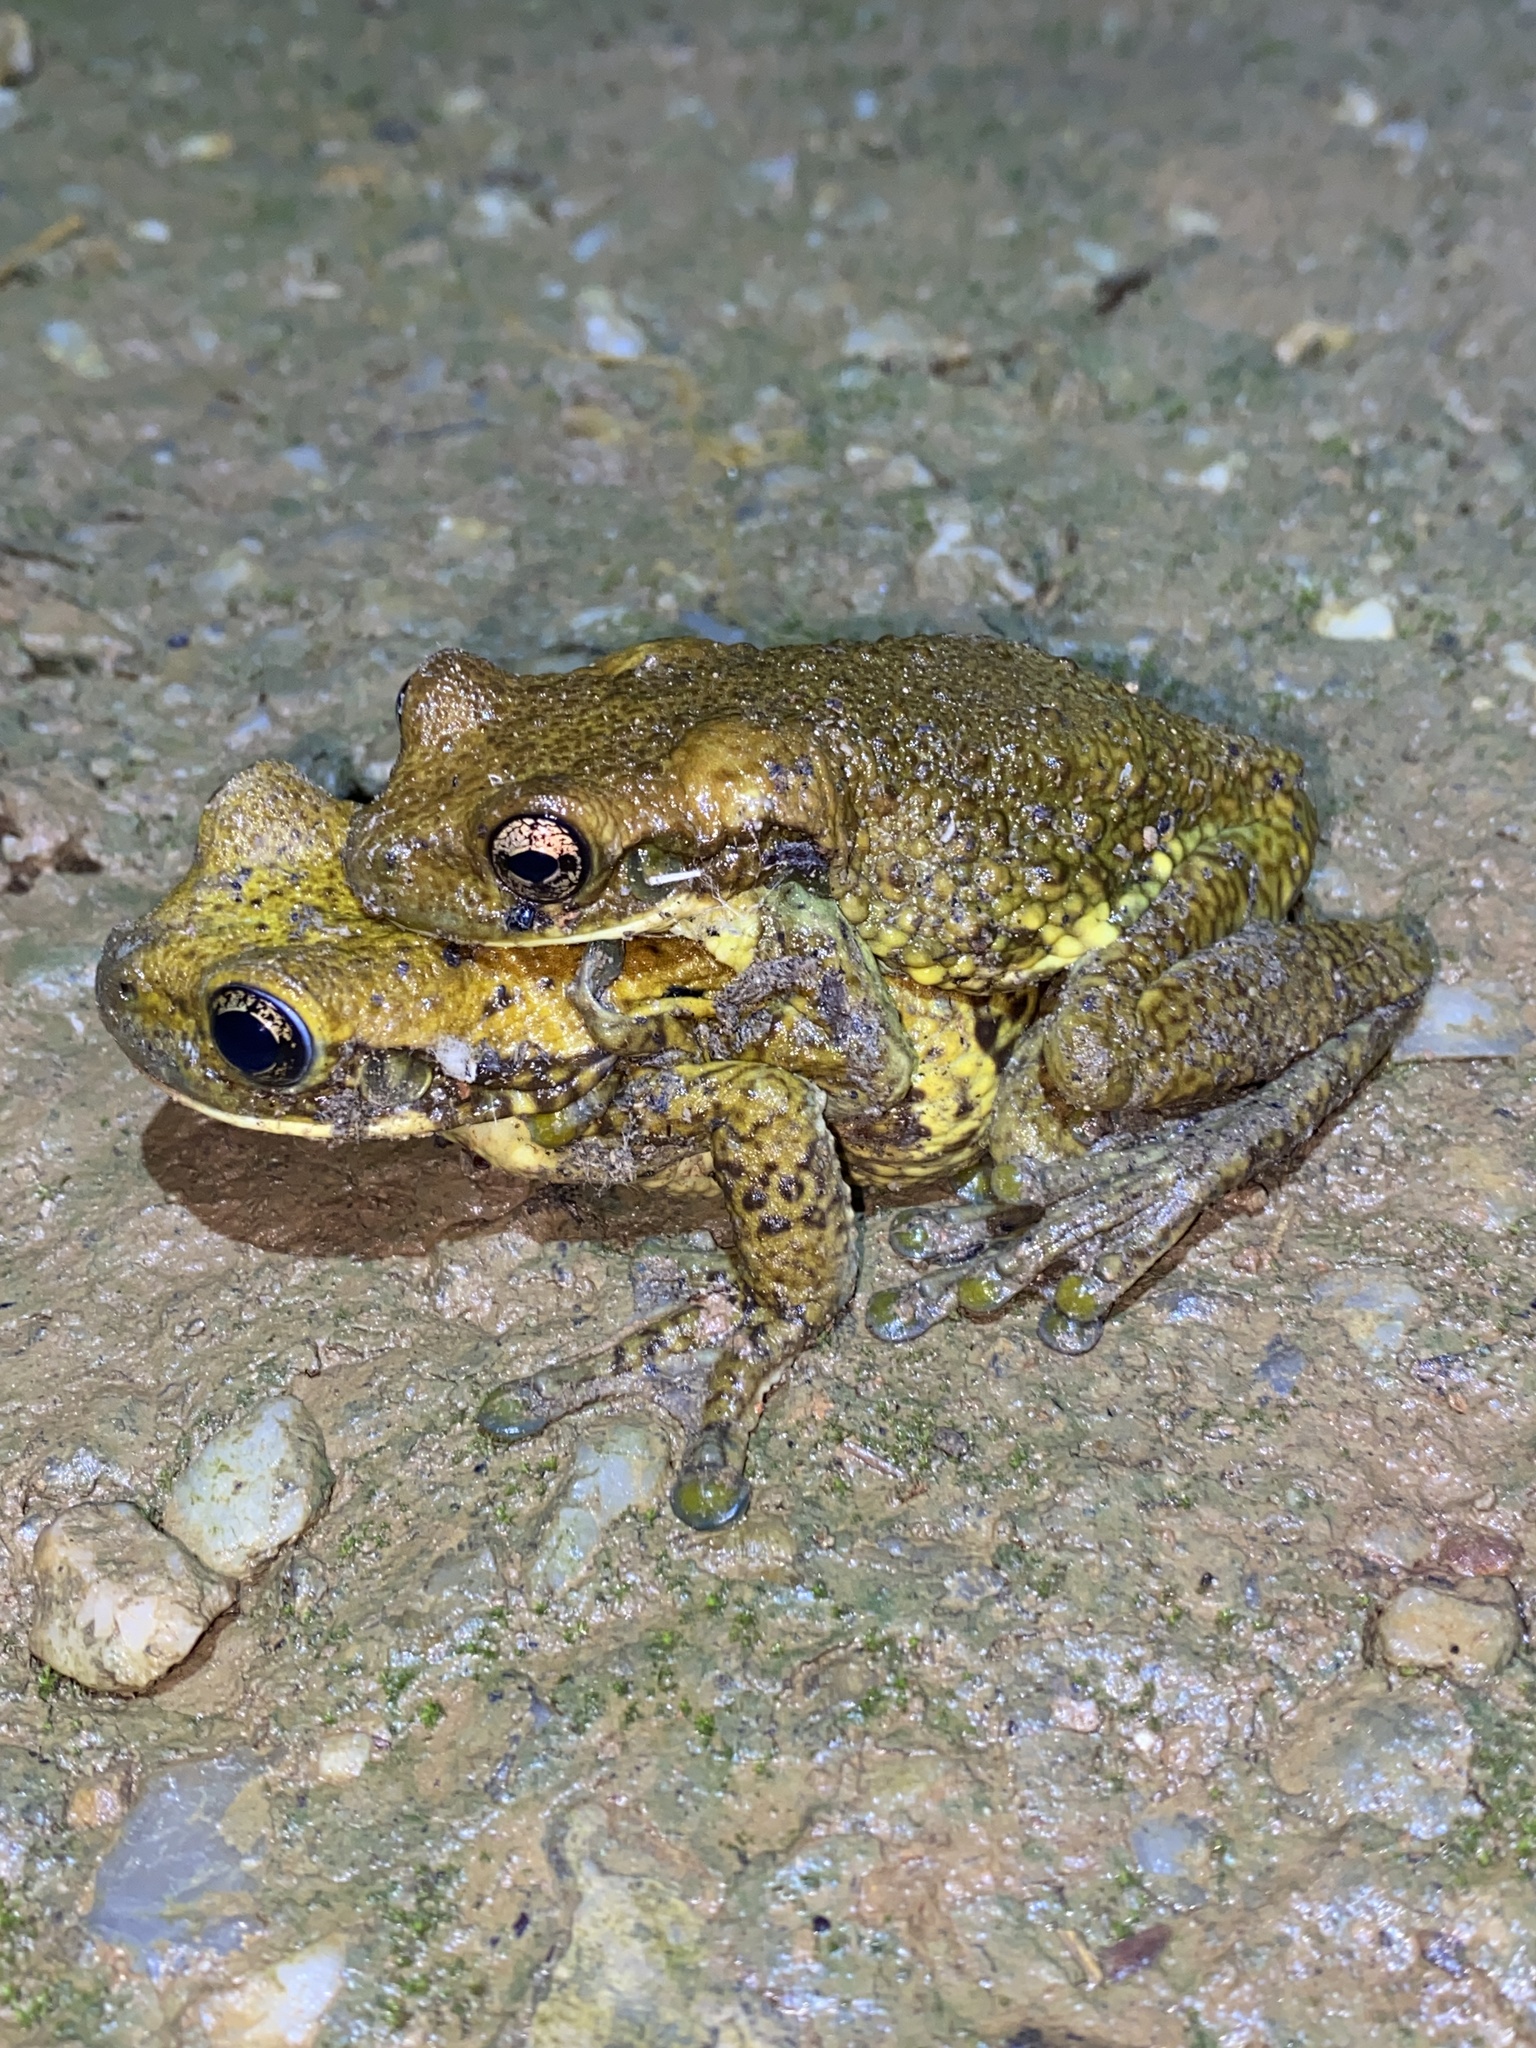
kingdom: Animalia
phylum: Chordata
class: Amphibia
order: Anura
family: Hylidae
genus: Trachycephalus
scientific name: Trachycephalus typhonius
